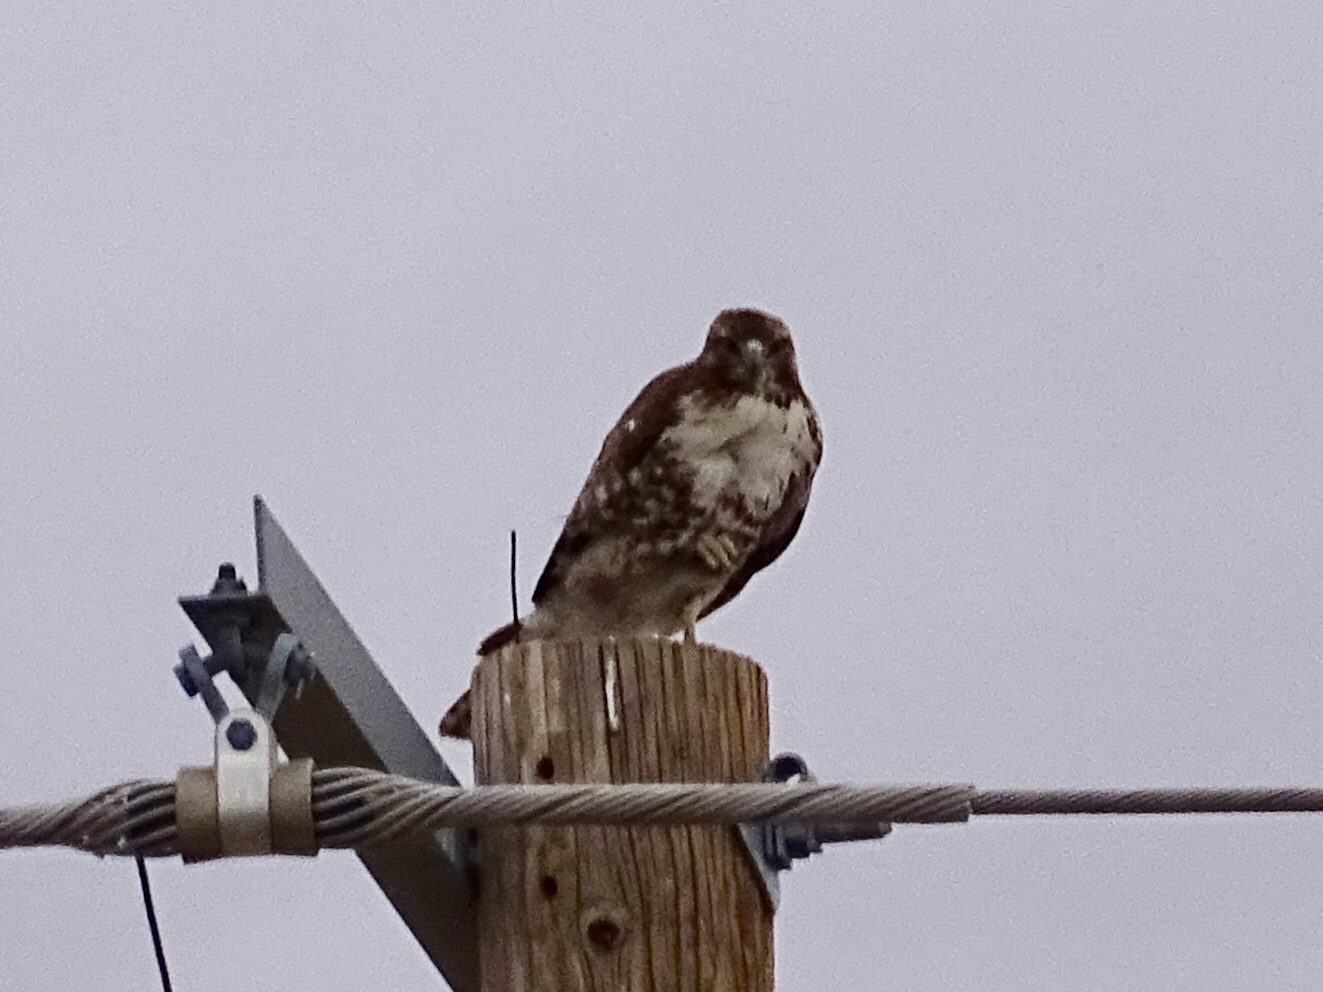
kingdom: Animalia
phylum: Chordata
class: Aves
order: Accipitriformes
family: Accipitridae
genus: Buteo
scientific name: Buteo jamaicensis
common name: Red-tailed hawk
